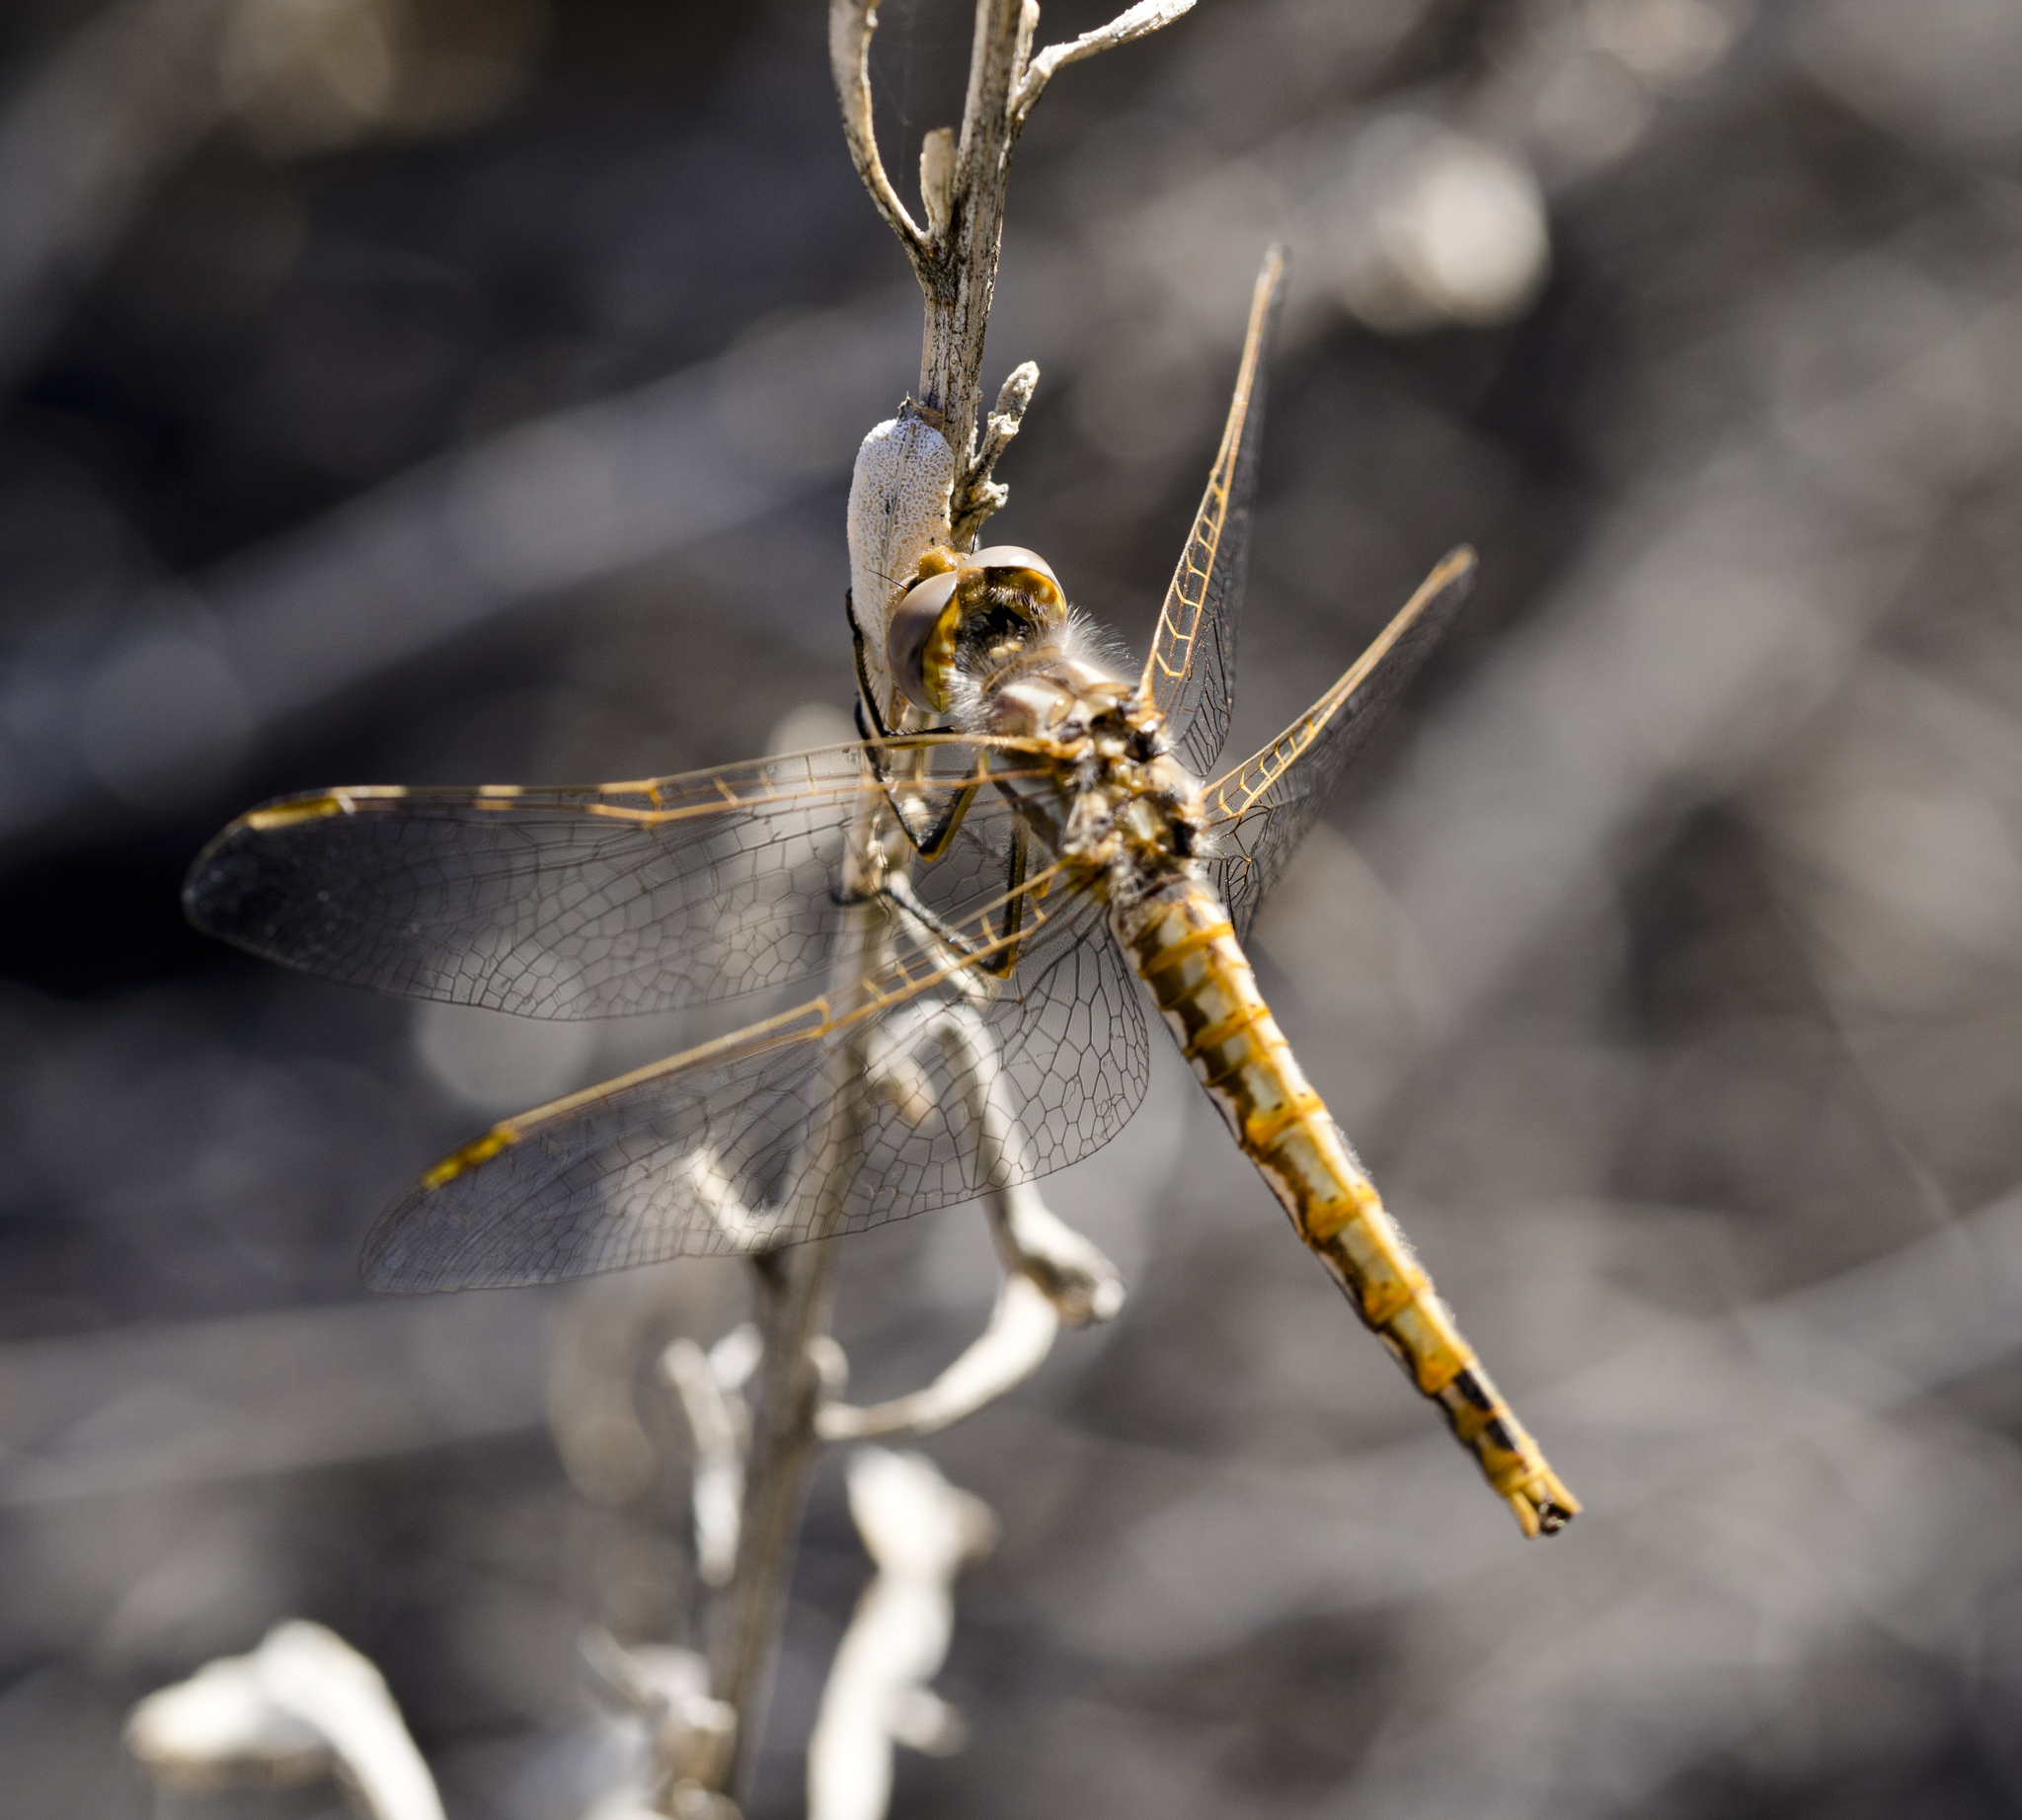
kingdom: Animalia
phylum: Arthropoda
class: Insecta
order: Odonata
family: Libellulidae
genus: Sympetrum
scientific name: Sympetrum corruptum
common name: Variegated meadowhawk
